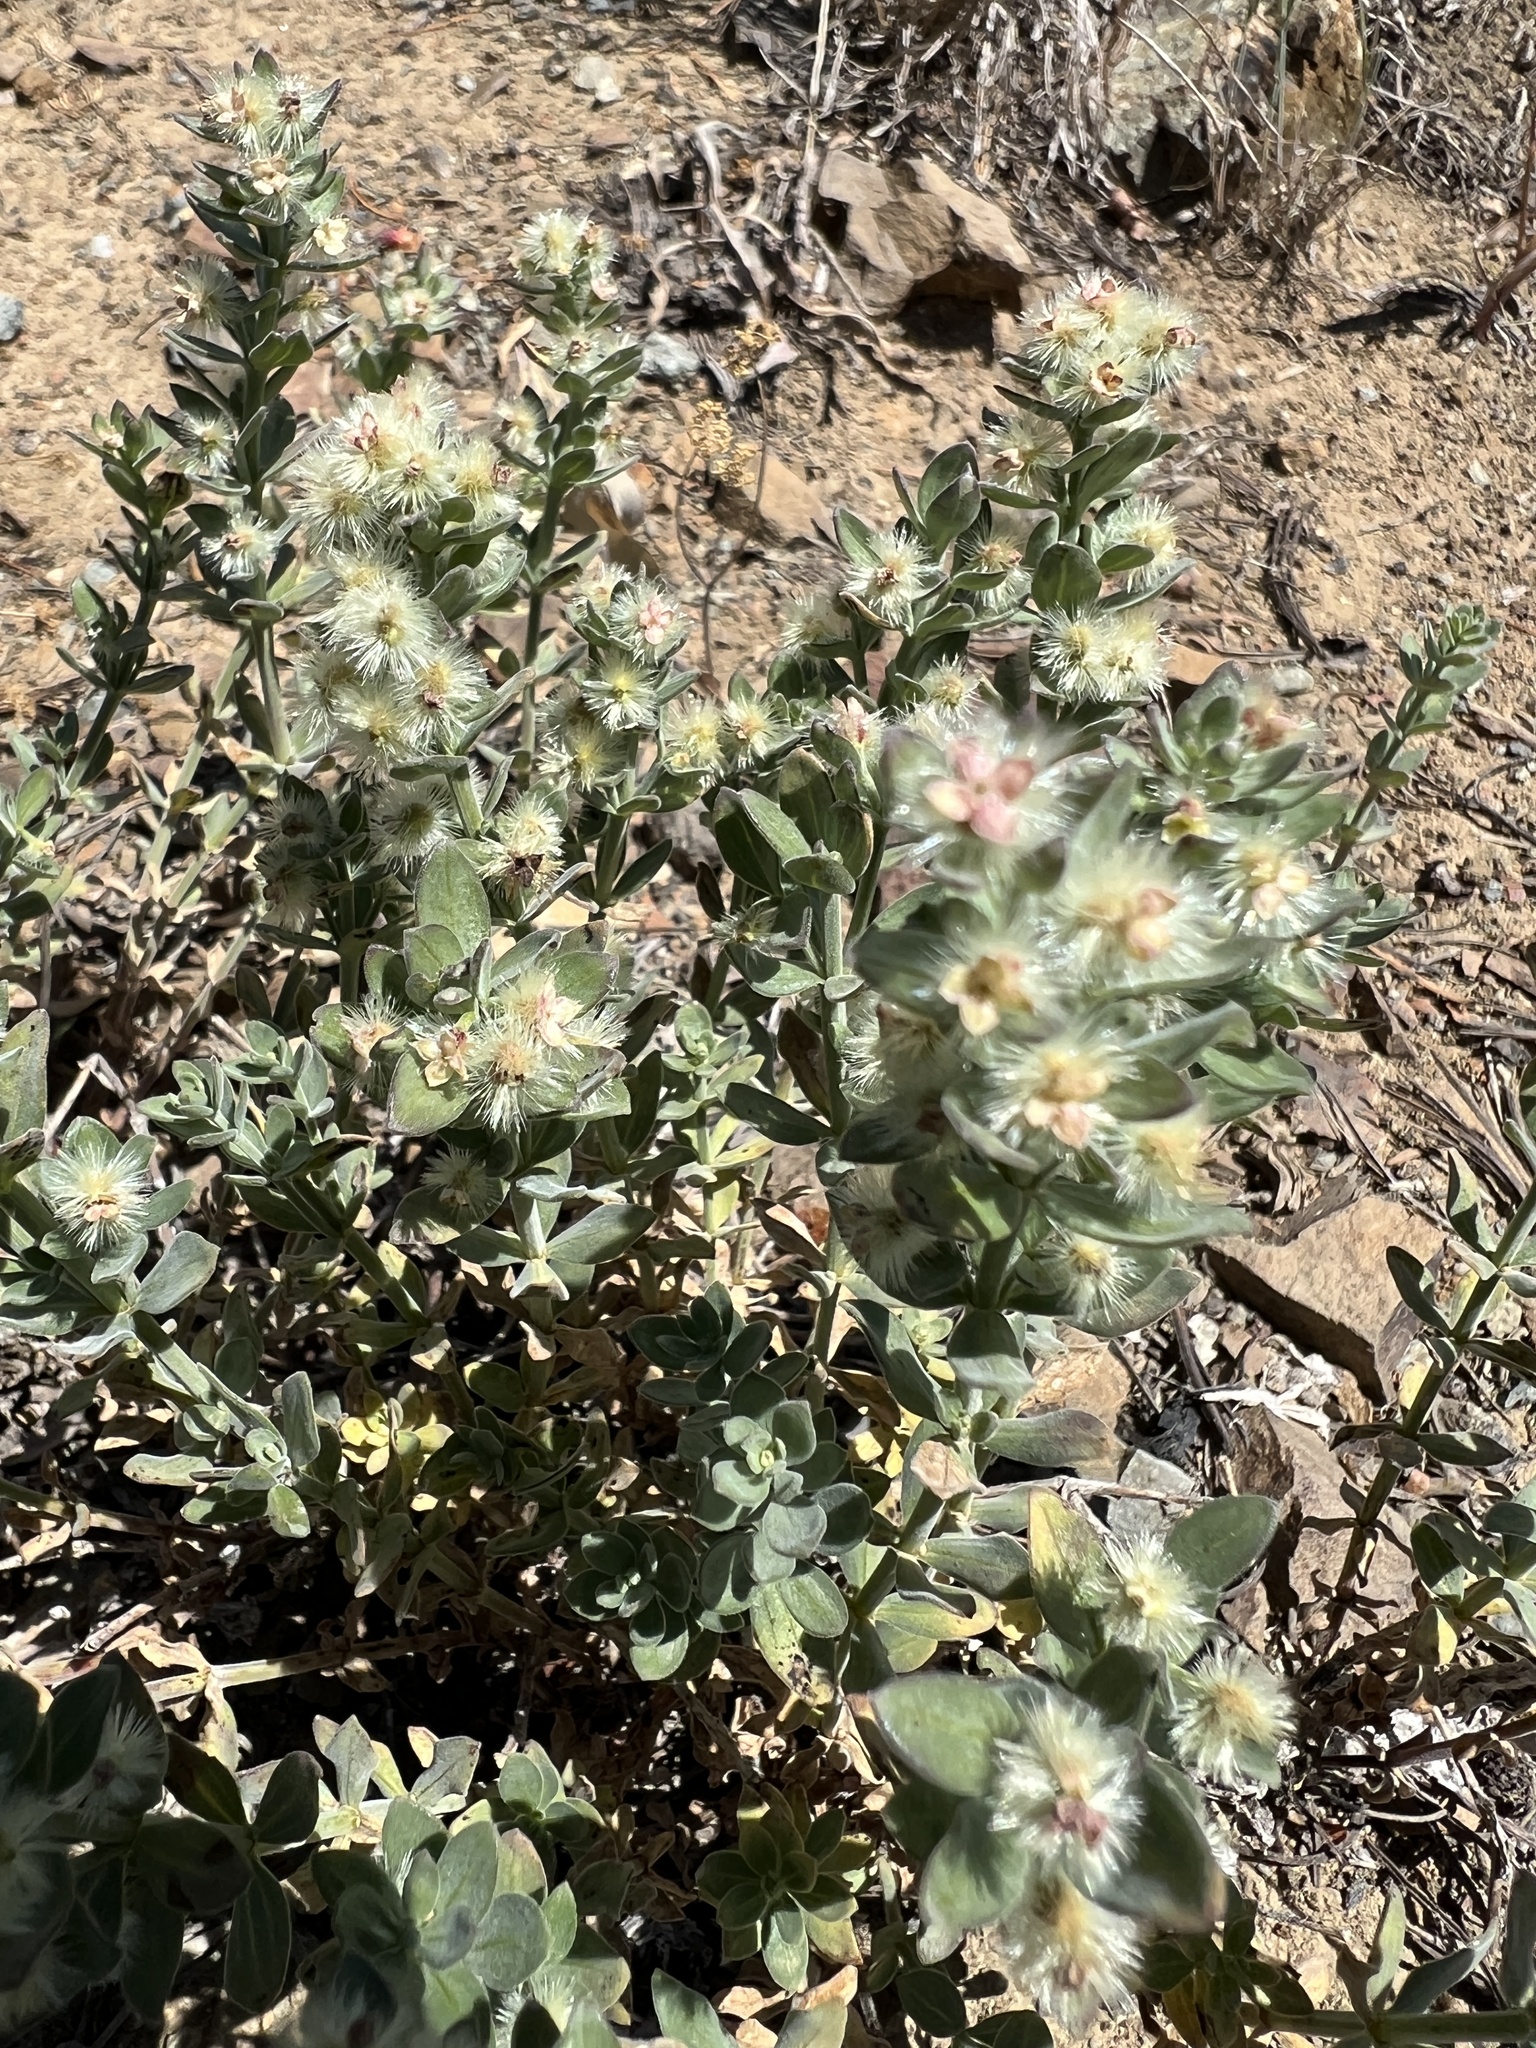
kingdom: Plantae
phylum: Tracheophyta
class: Magnoliopsida
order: Gentianales
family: Rubiaceae
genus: Galium
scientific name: Galium serpenticum
